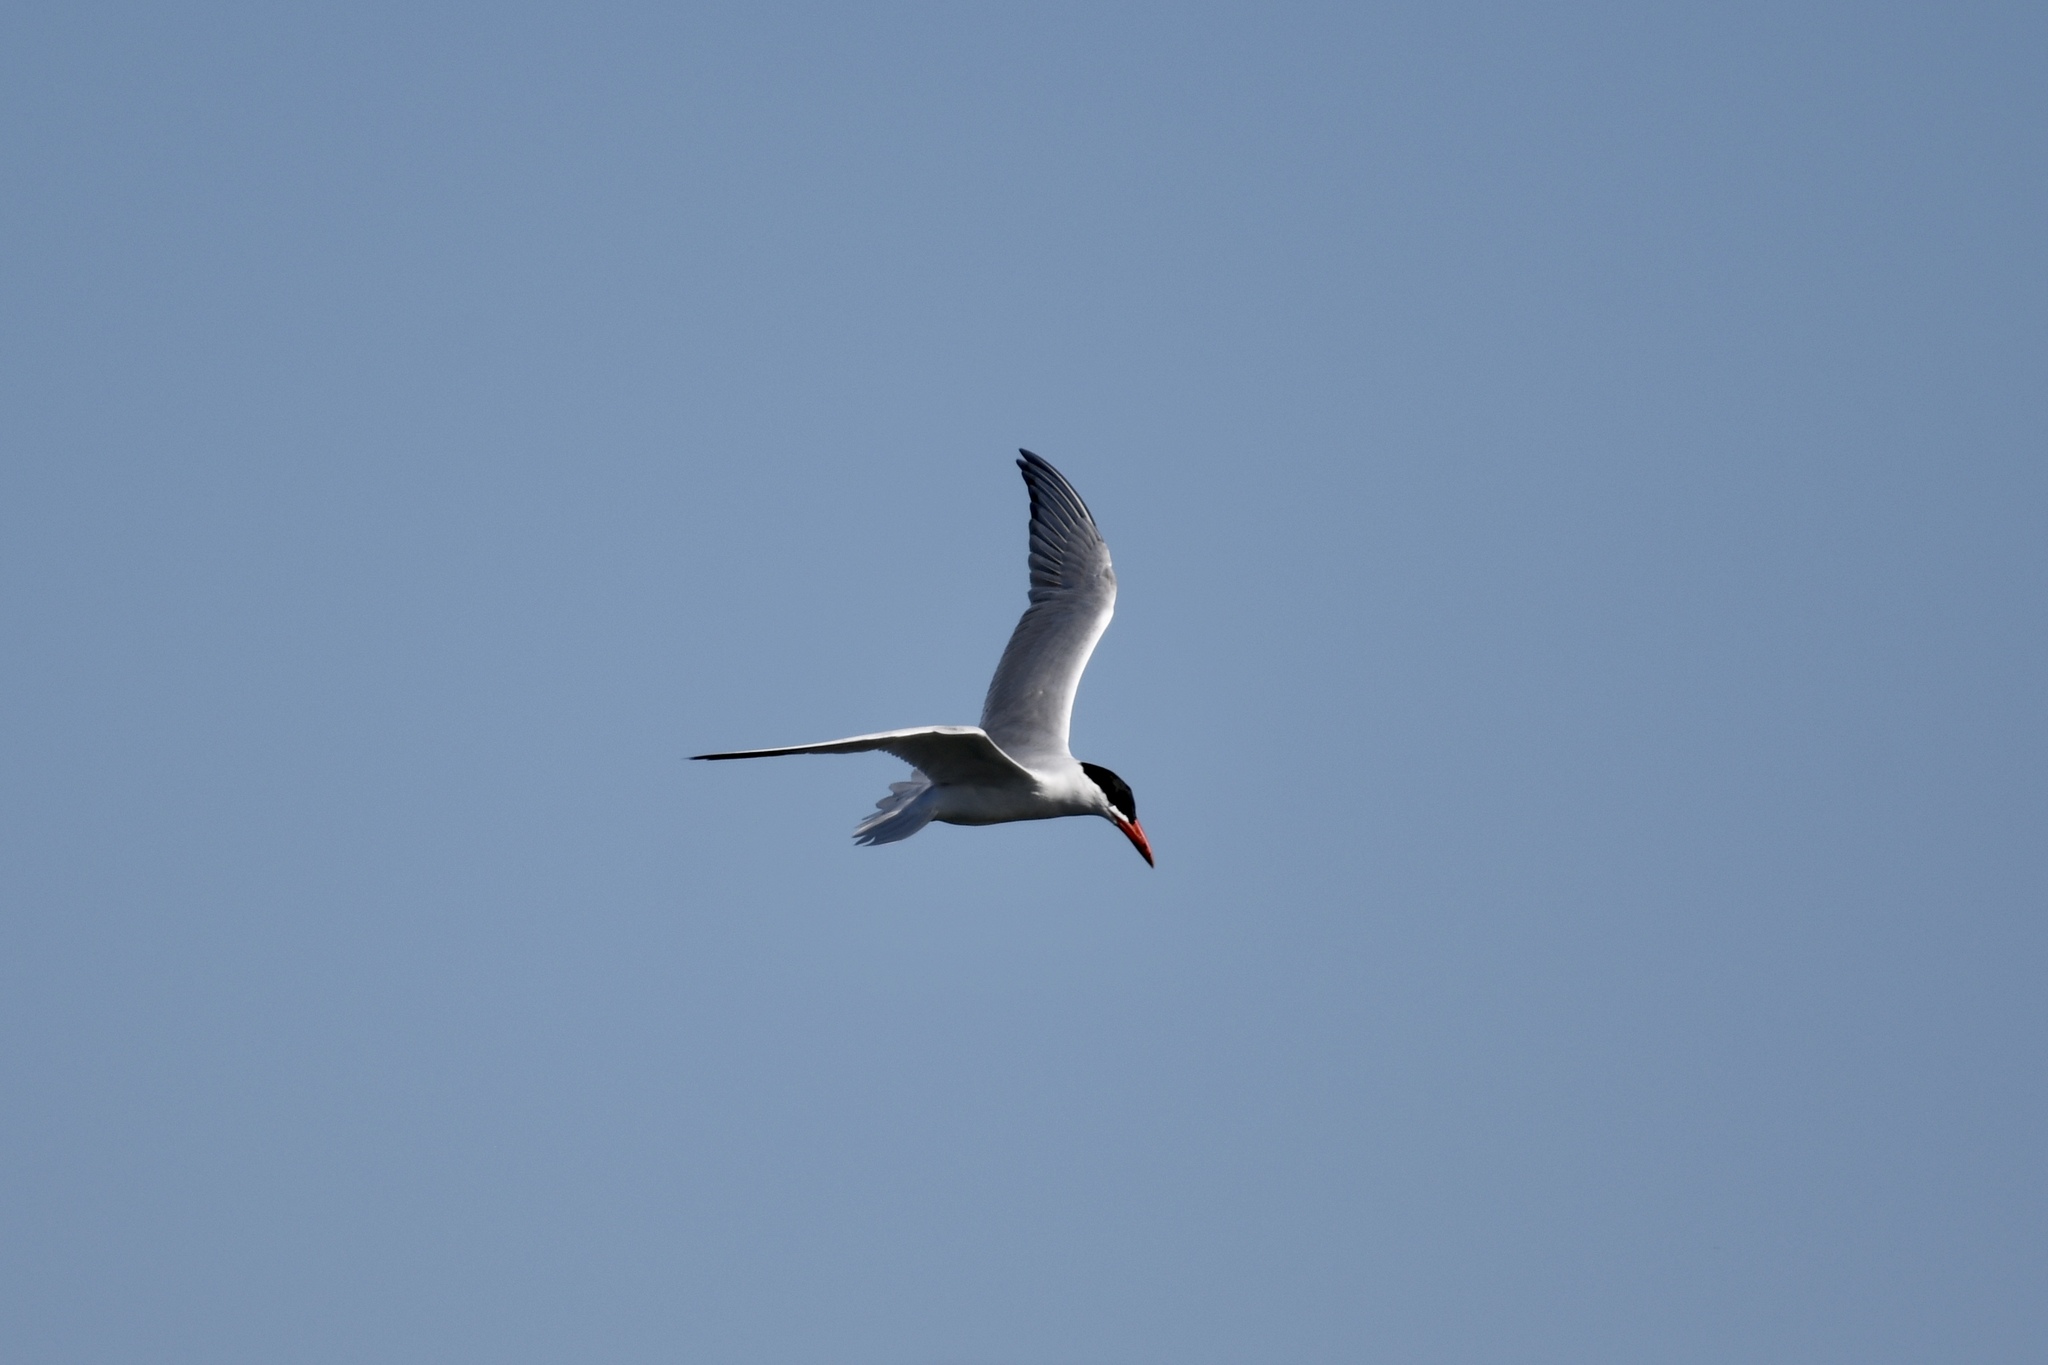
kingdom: Animalia
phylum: Chordata
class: Aves
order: Charadriiformes
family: Laridae
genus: Hydroprogne
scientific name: Hydroprogne caspia
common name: Caspian tern
